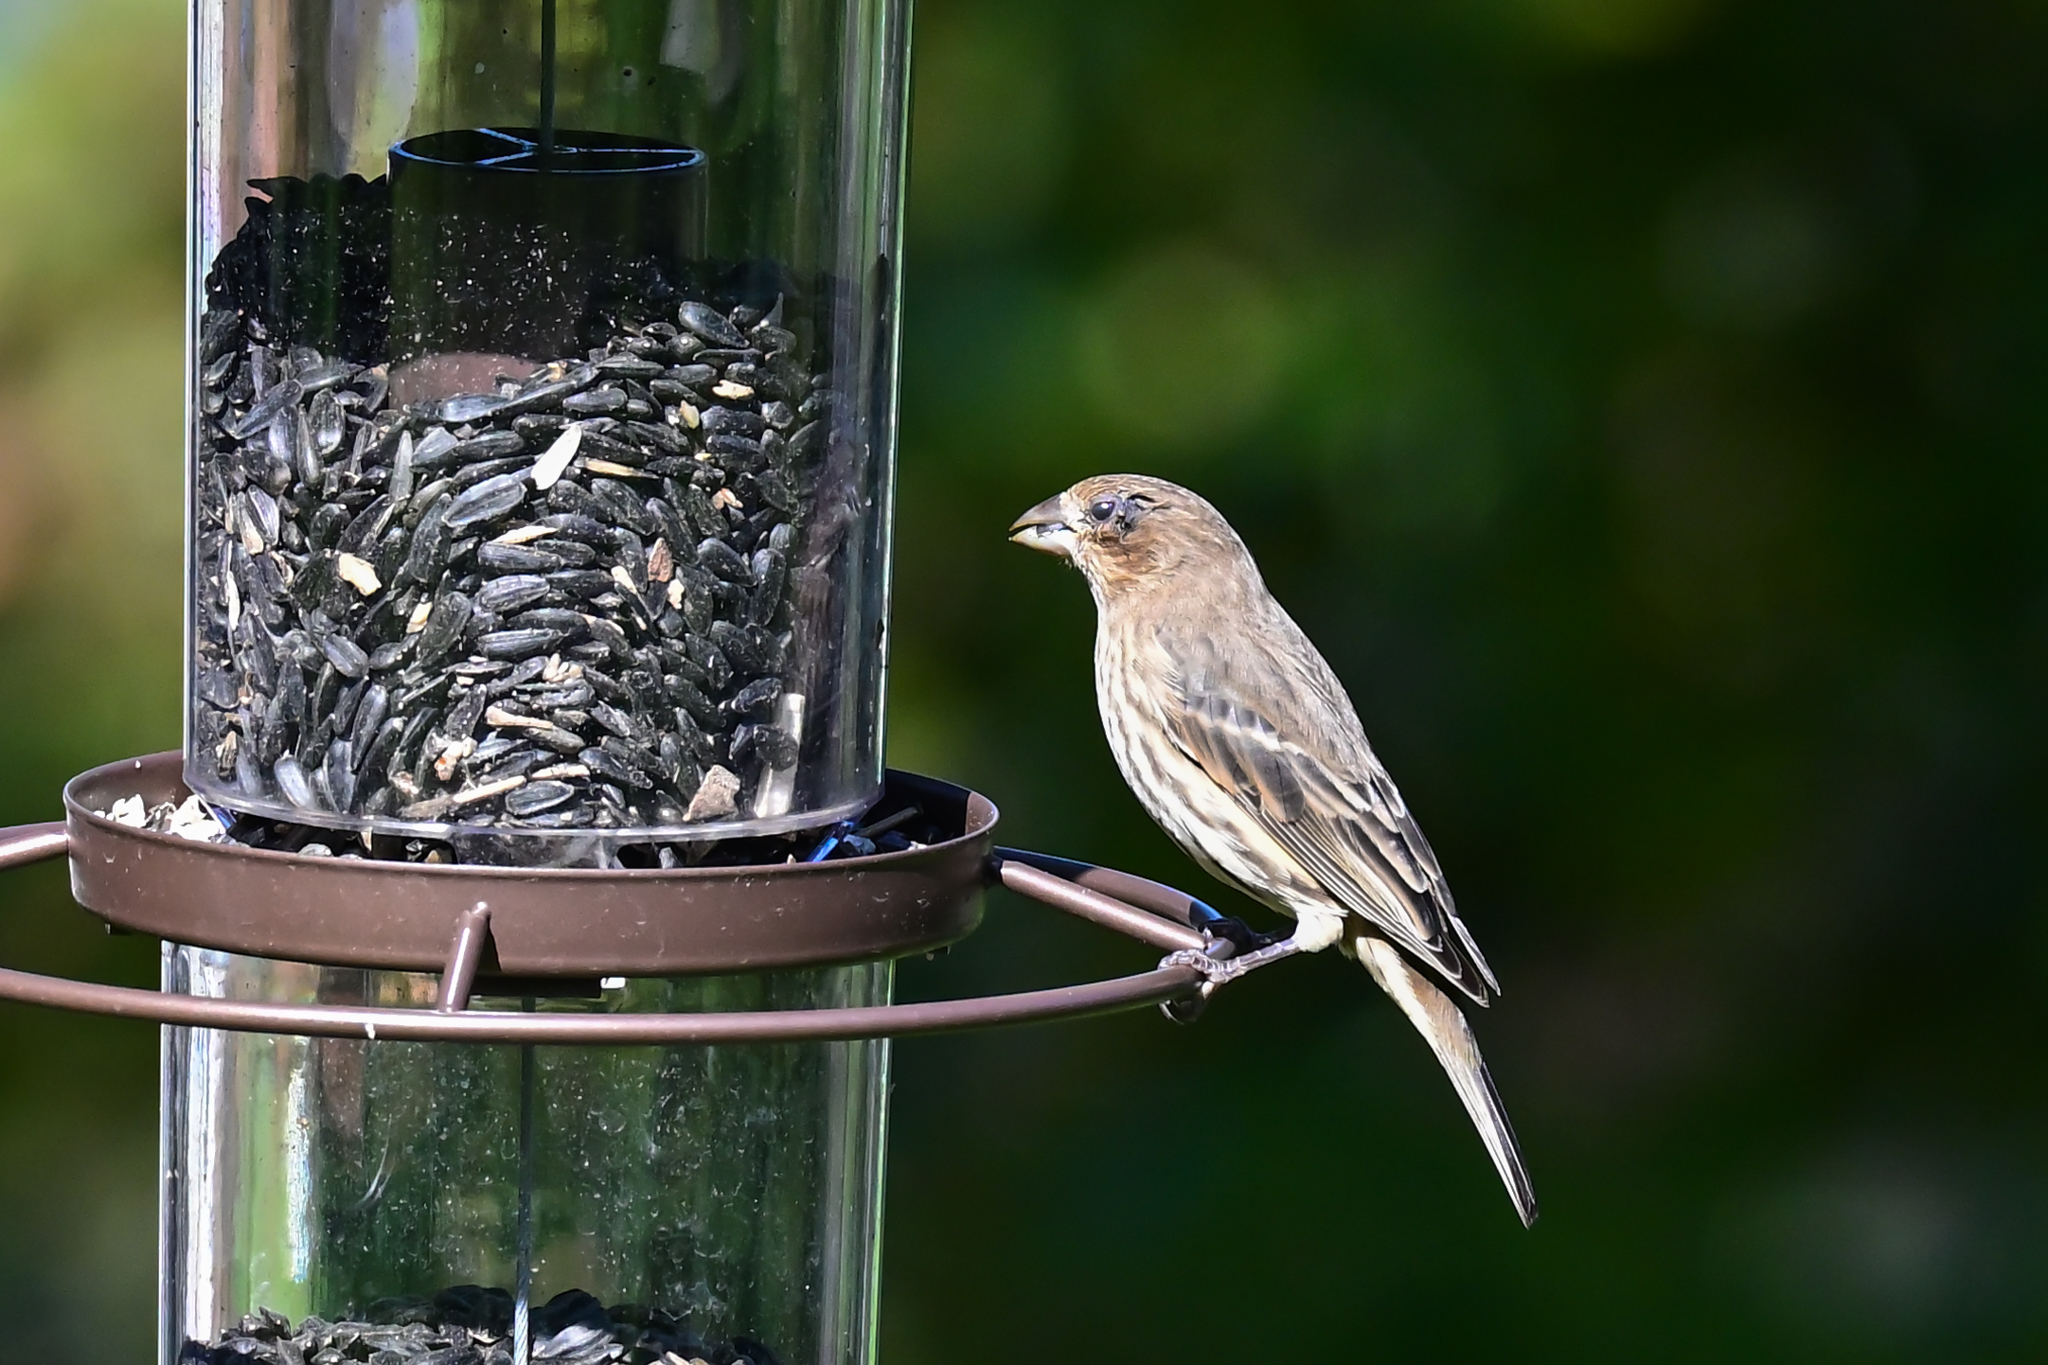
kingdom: Animalia
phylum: Chordata
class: Aves
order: Passeriformes
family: Fringillidae
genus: Haemorhous
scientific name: Haemorhous mexicanus
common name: House finch
